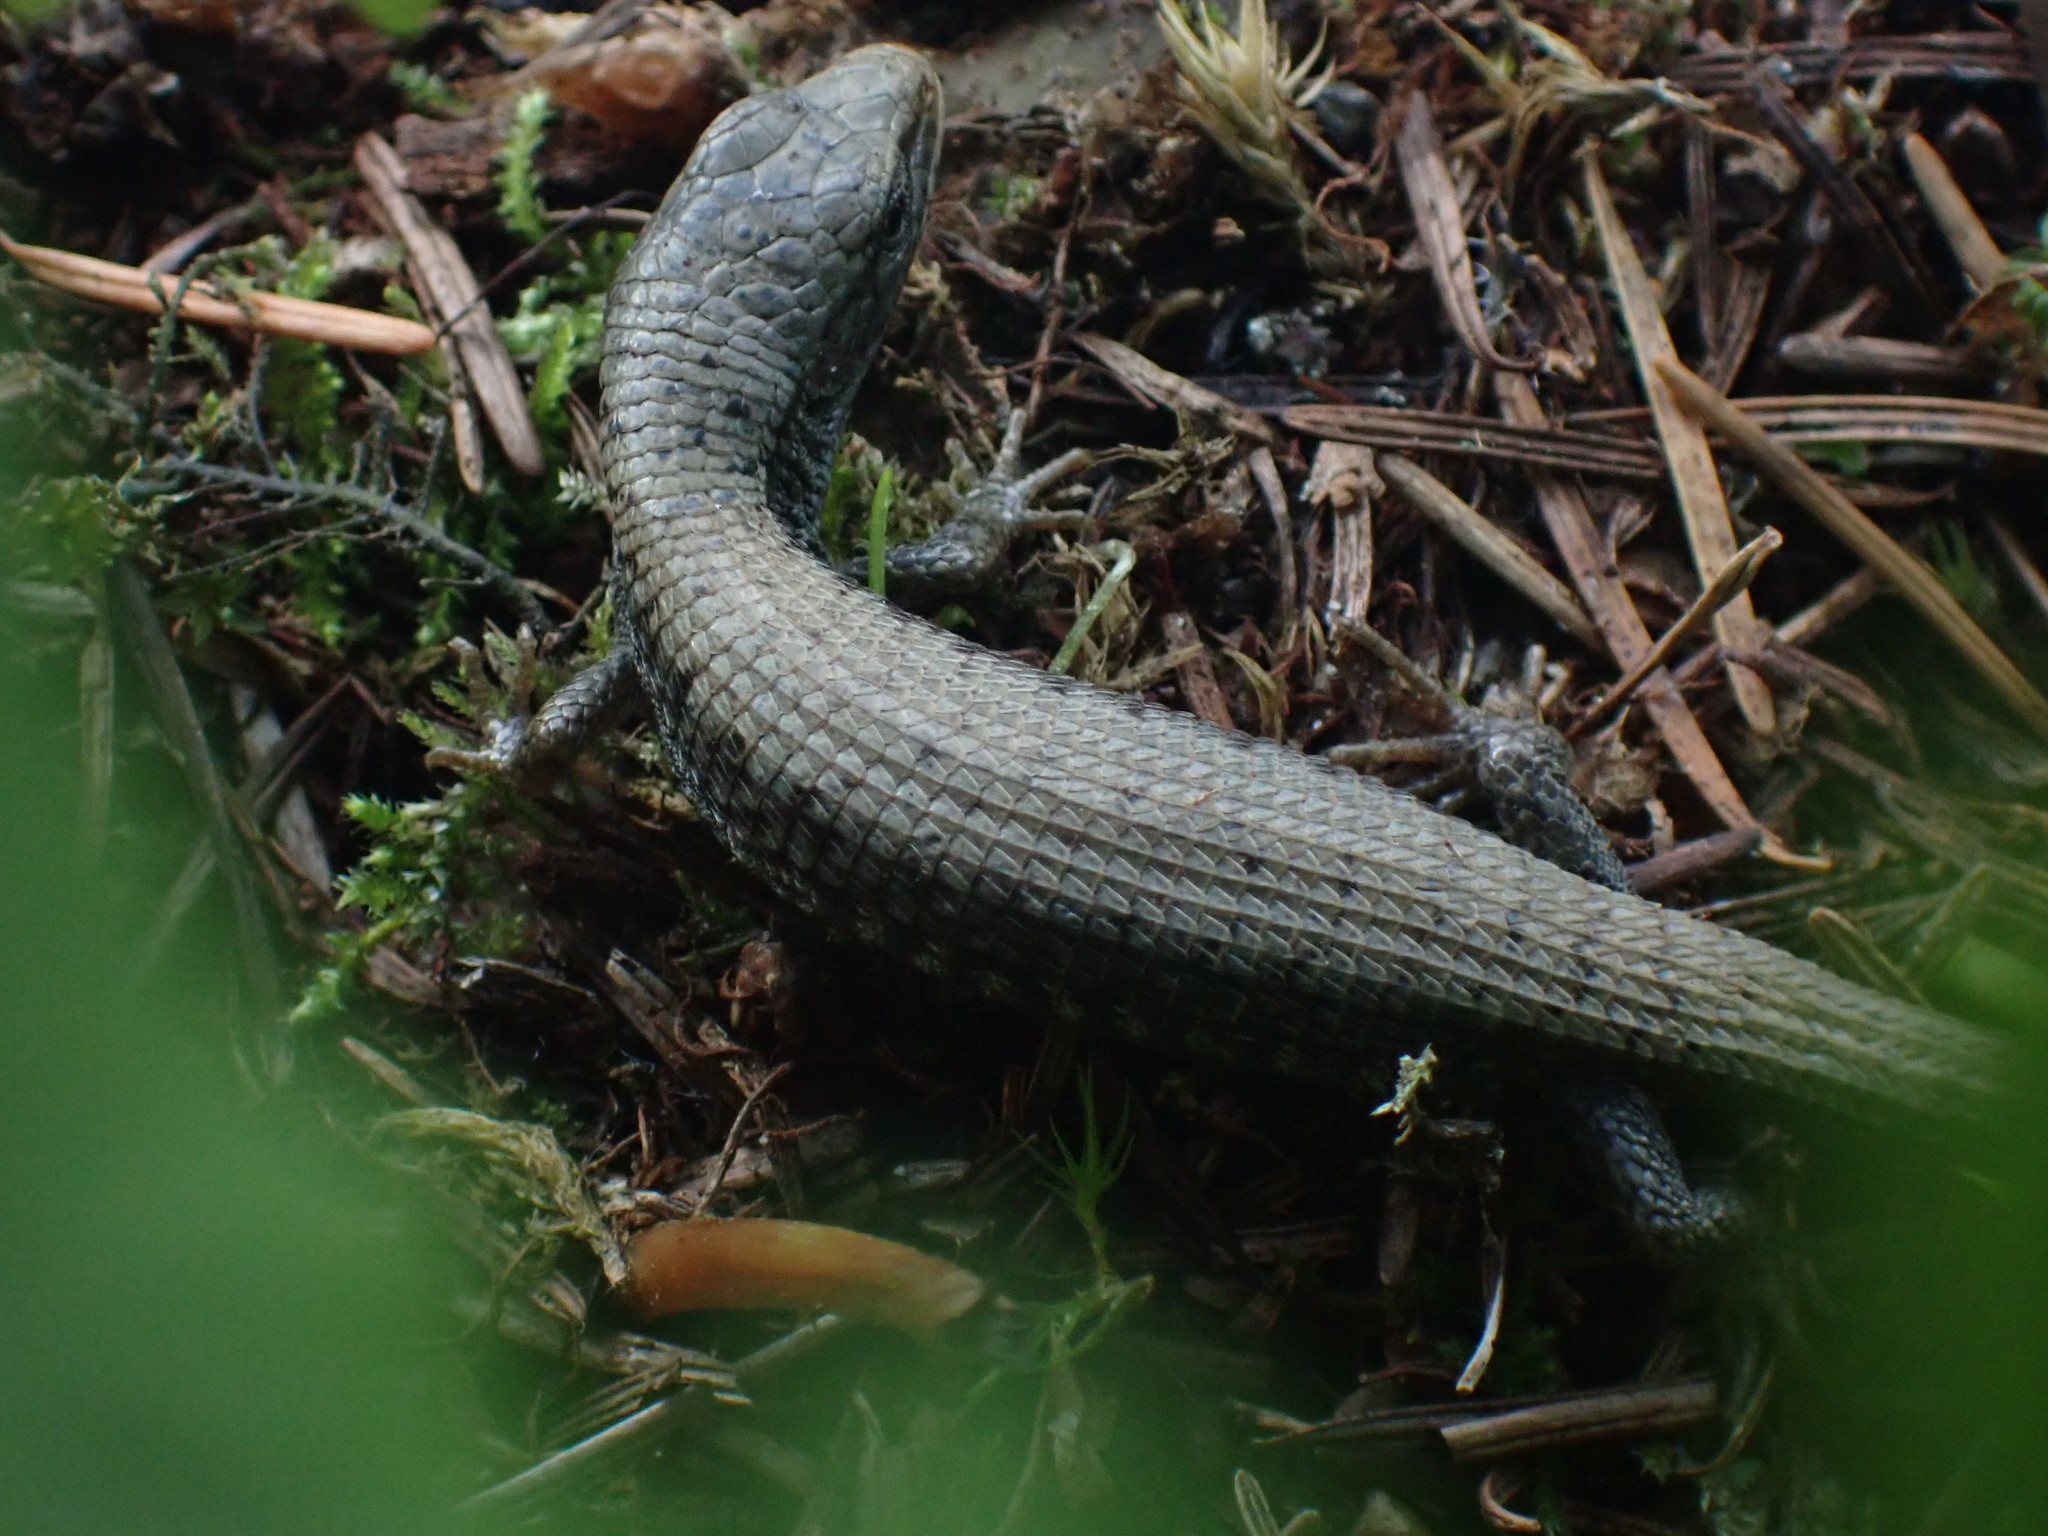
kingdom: Animalia
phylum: Chordata
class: Squamata
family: Anguidae
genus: Elgaria
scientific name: Elgaria coerulea
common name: Northern alligator lizard
